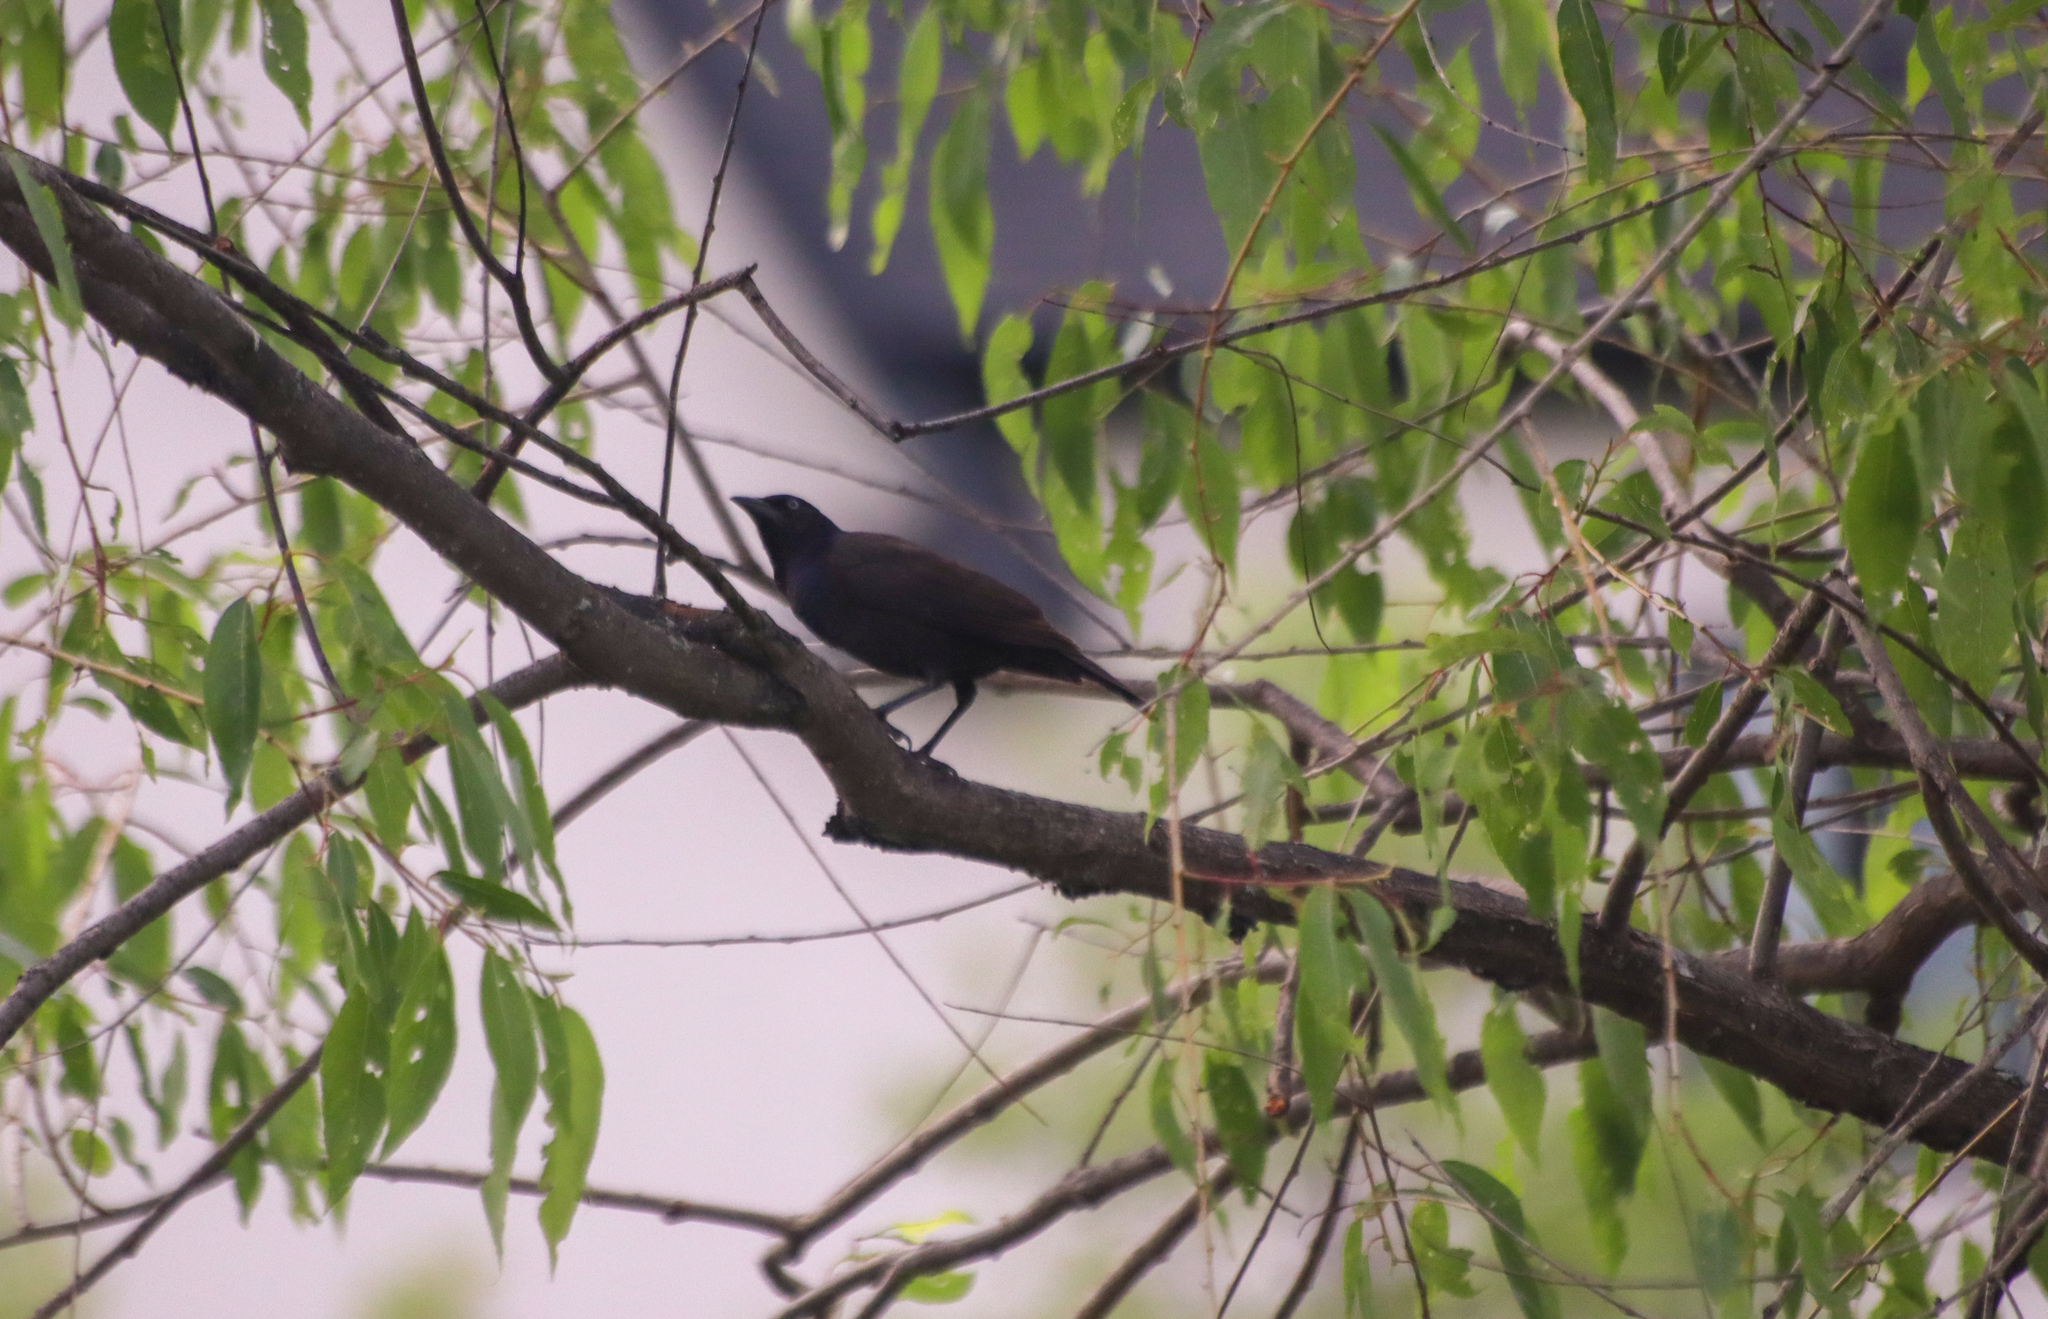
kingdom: Animalia
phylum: Chordata
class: Aves
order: Passeriformes
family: Icteridae
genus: Quiscalus
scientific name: Quiscalus quiscula
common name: Common grackle
